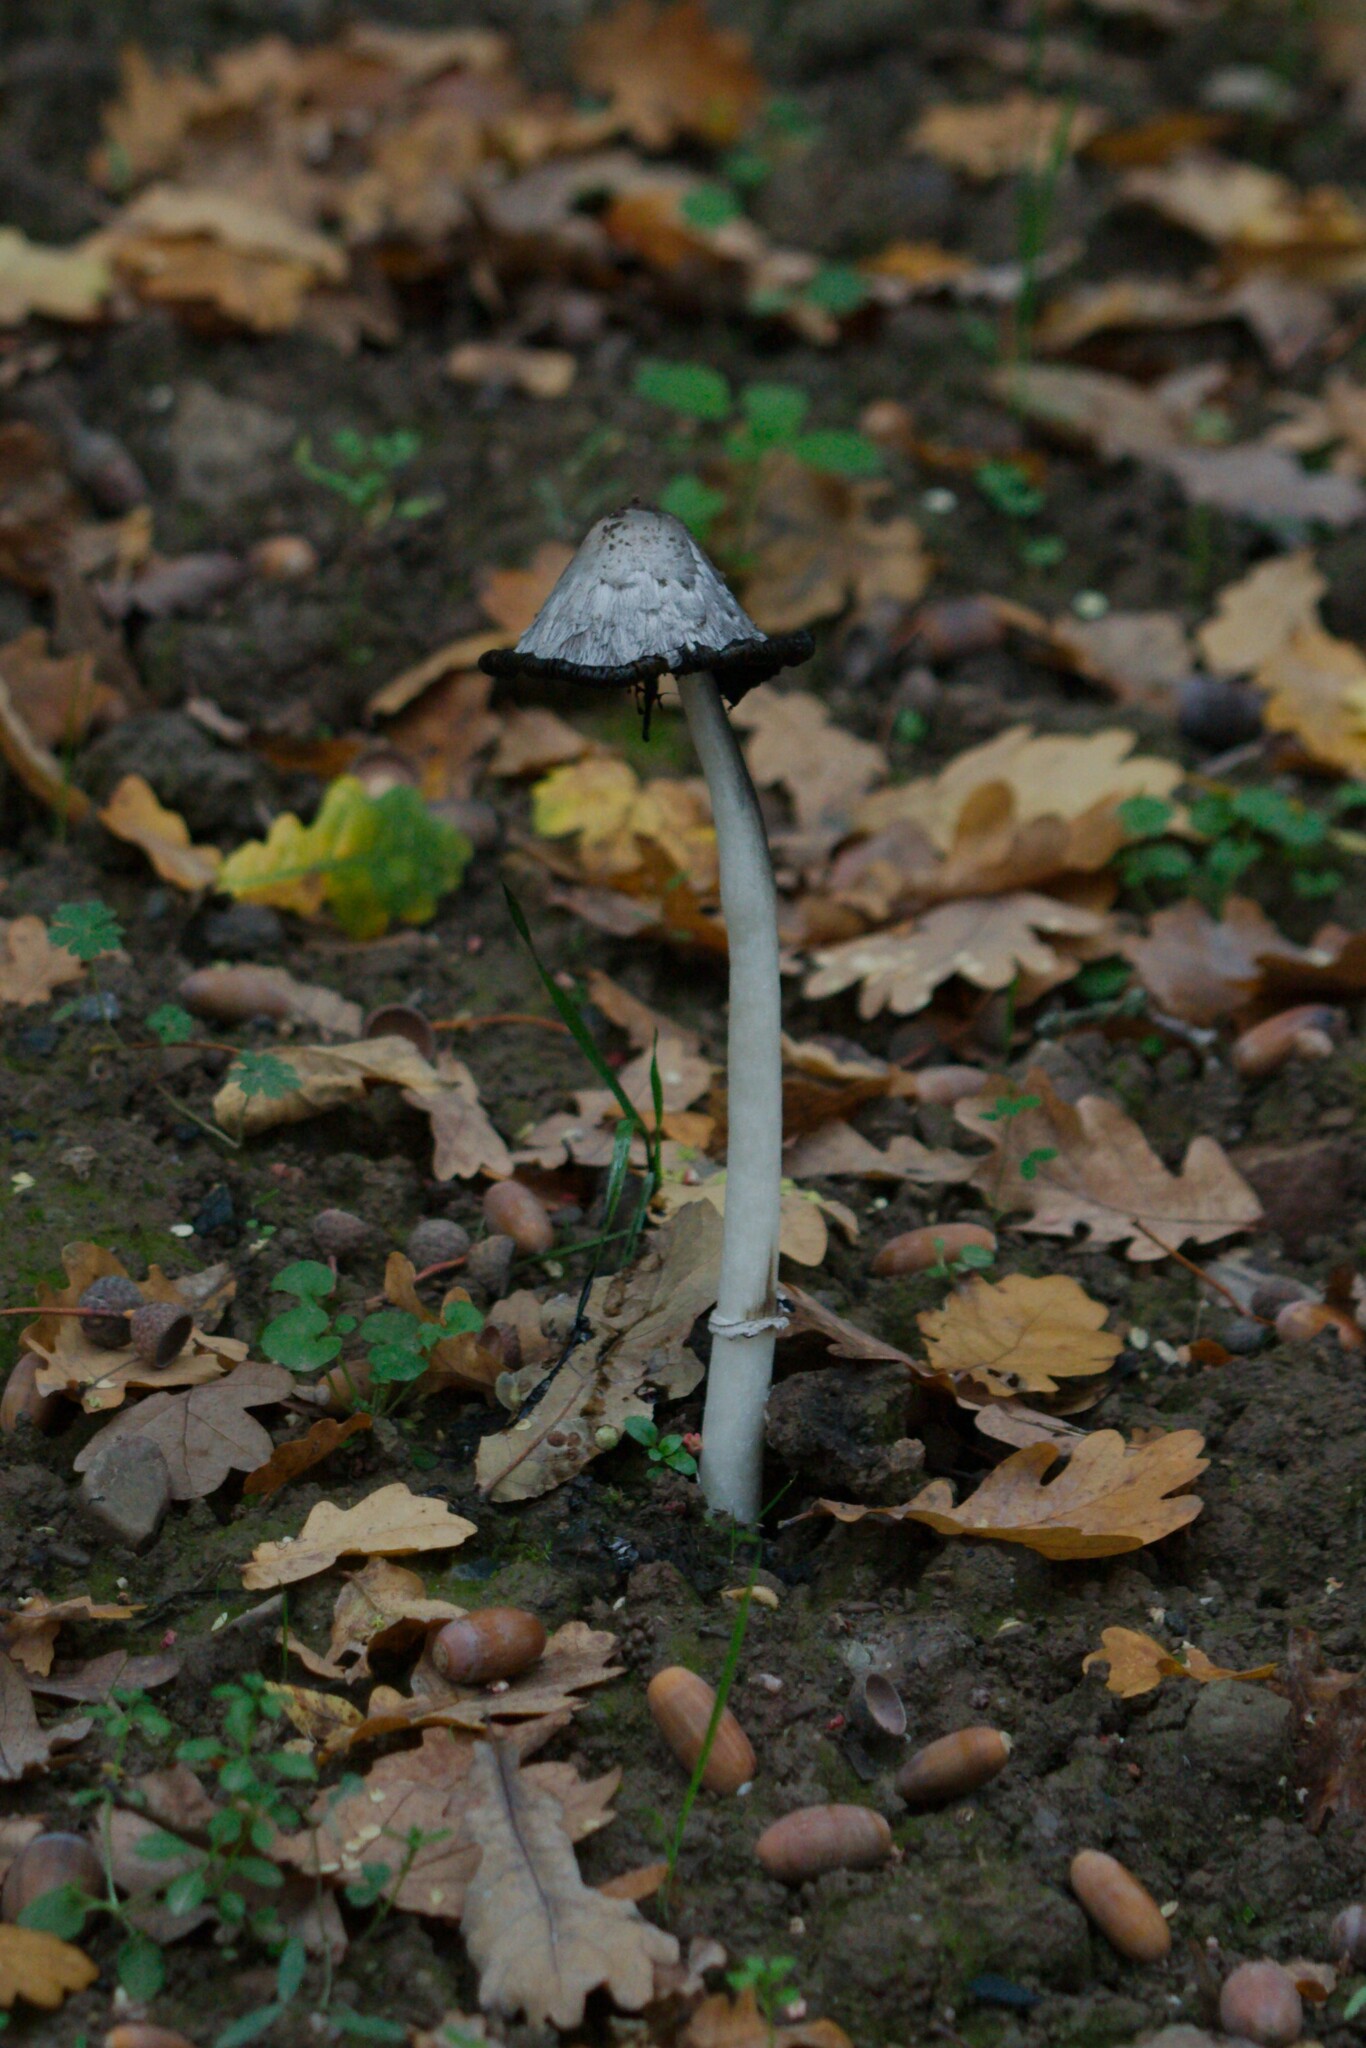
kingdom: Fungi
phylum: Basidiomycota
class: Agaricomycetes
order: Agaricales
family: Agaricaceae
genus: Coprinus
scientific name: Coprinus comatus
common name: Lawyer's wig
